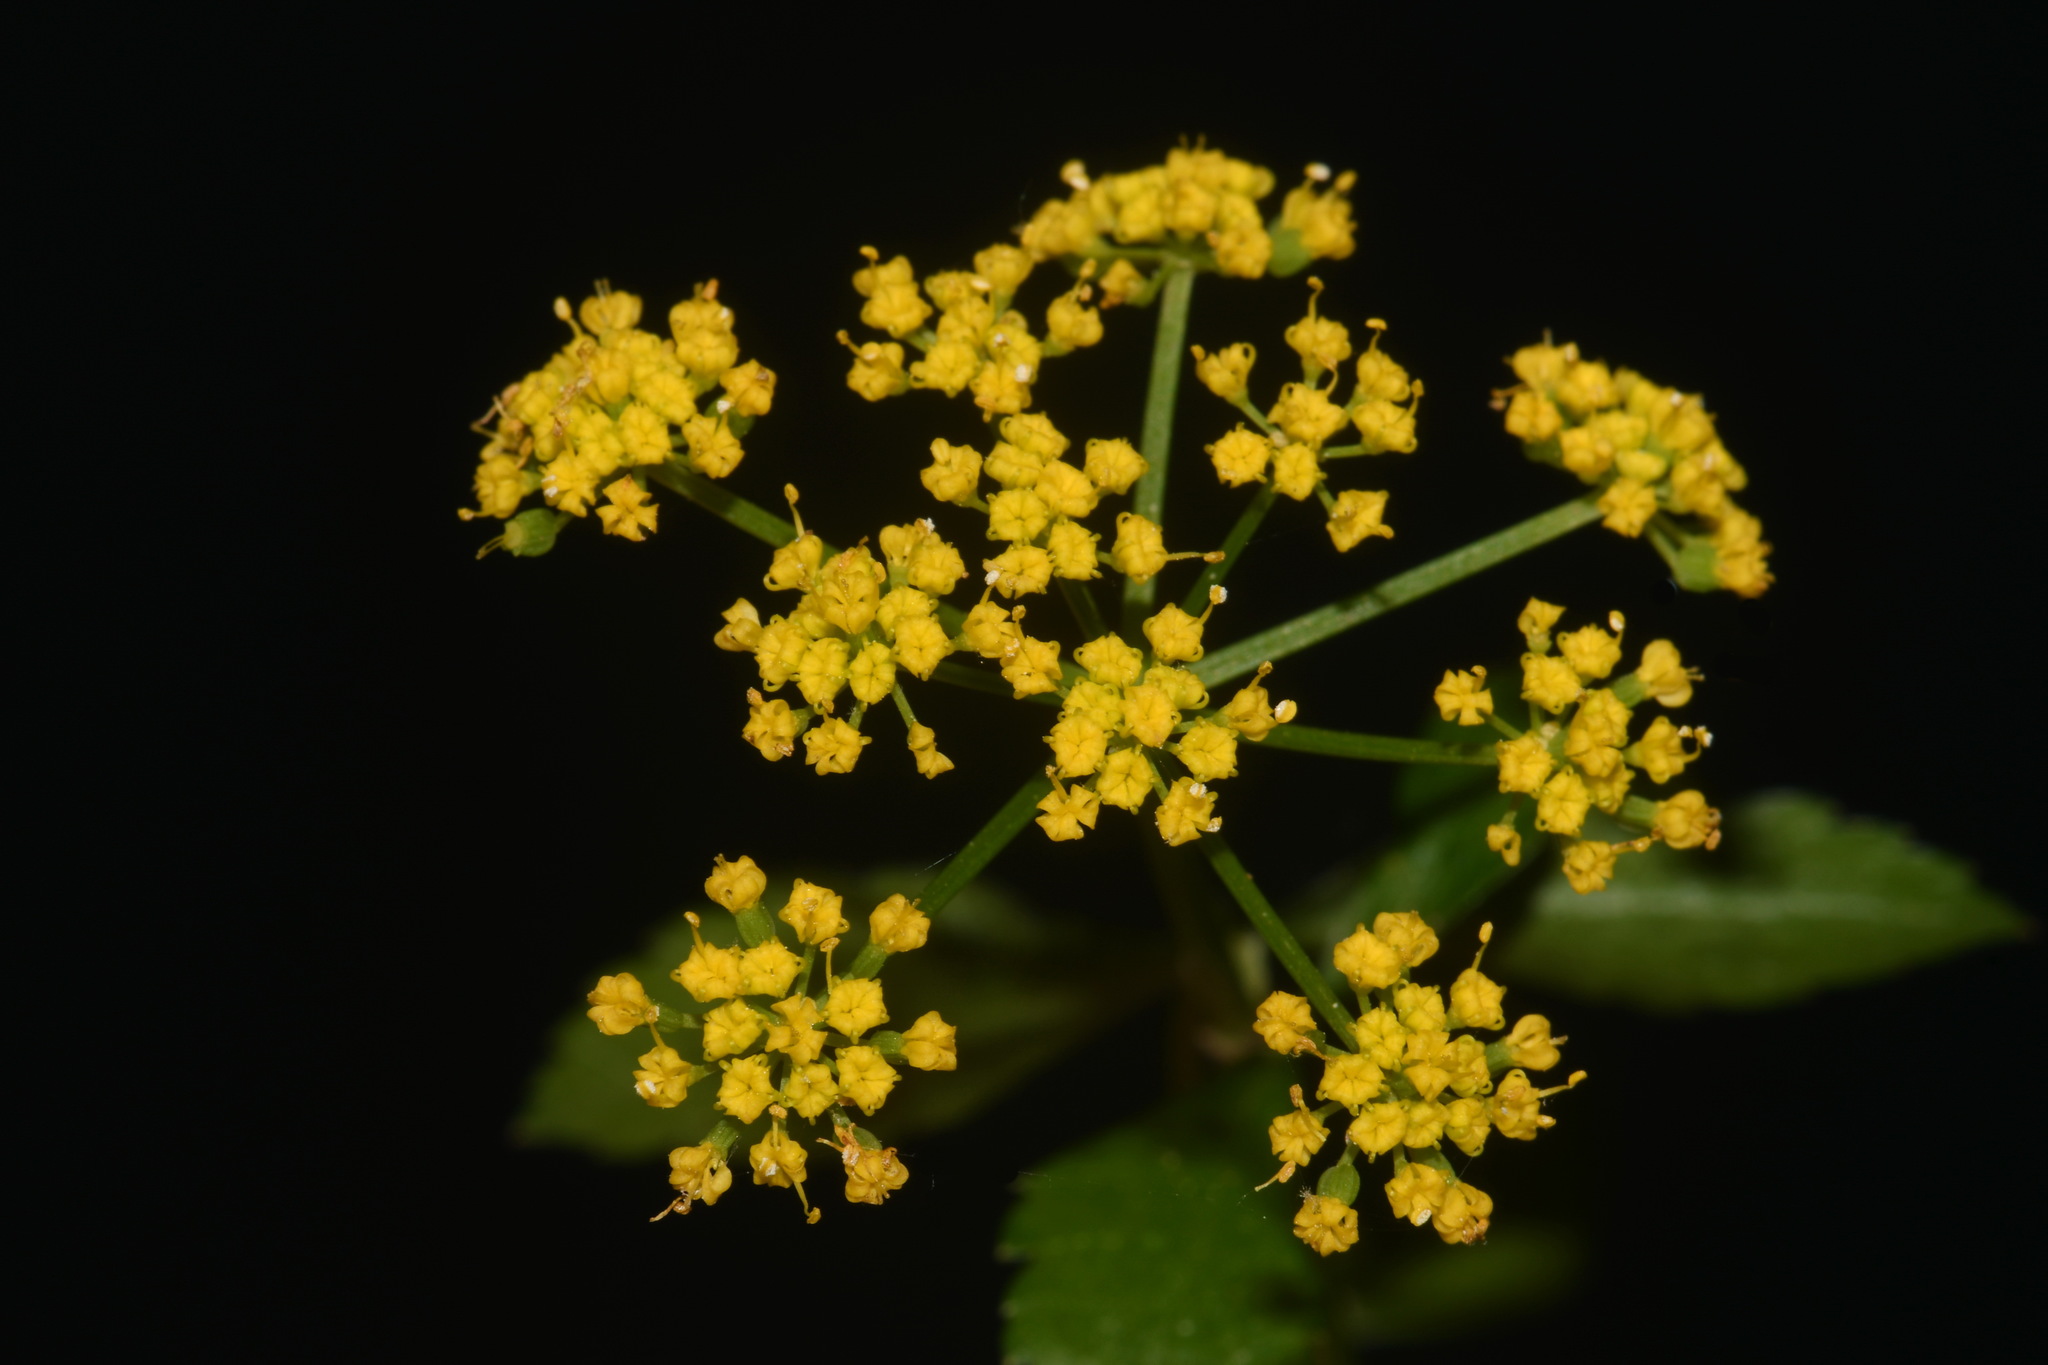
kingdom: Plantae
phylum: Tracheophyta
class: Magnoliopsida
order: Apiales
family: Apiaceae
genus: Thaspium
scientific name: Thaspium trifoliatum
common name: Purple meadow-parsnip
